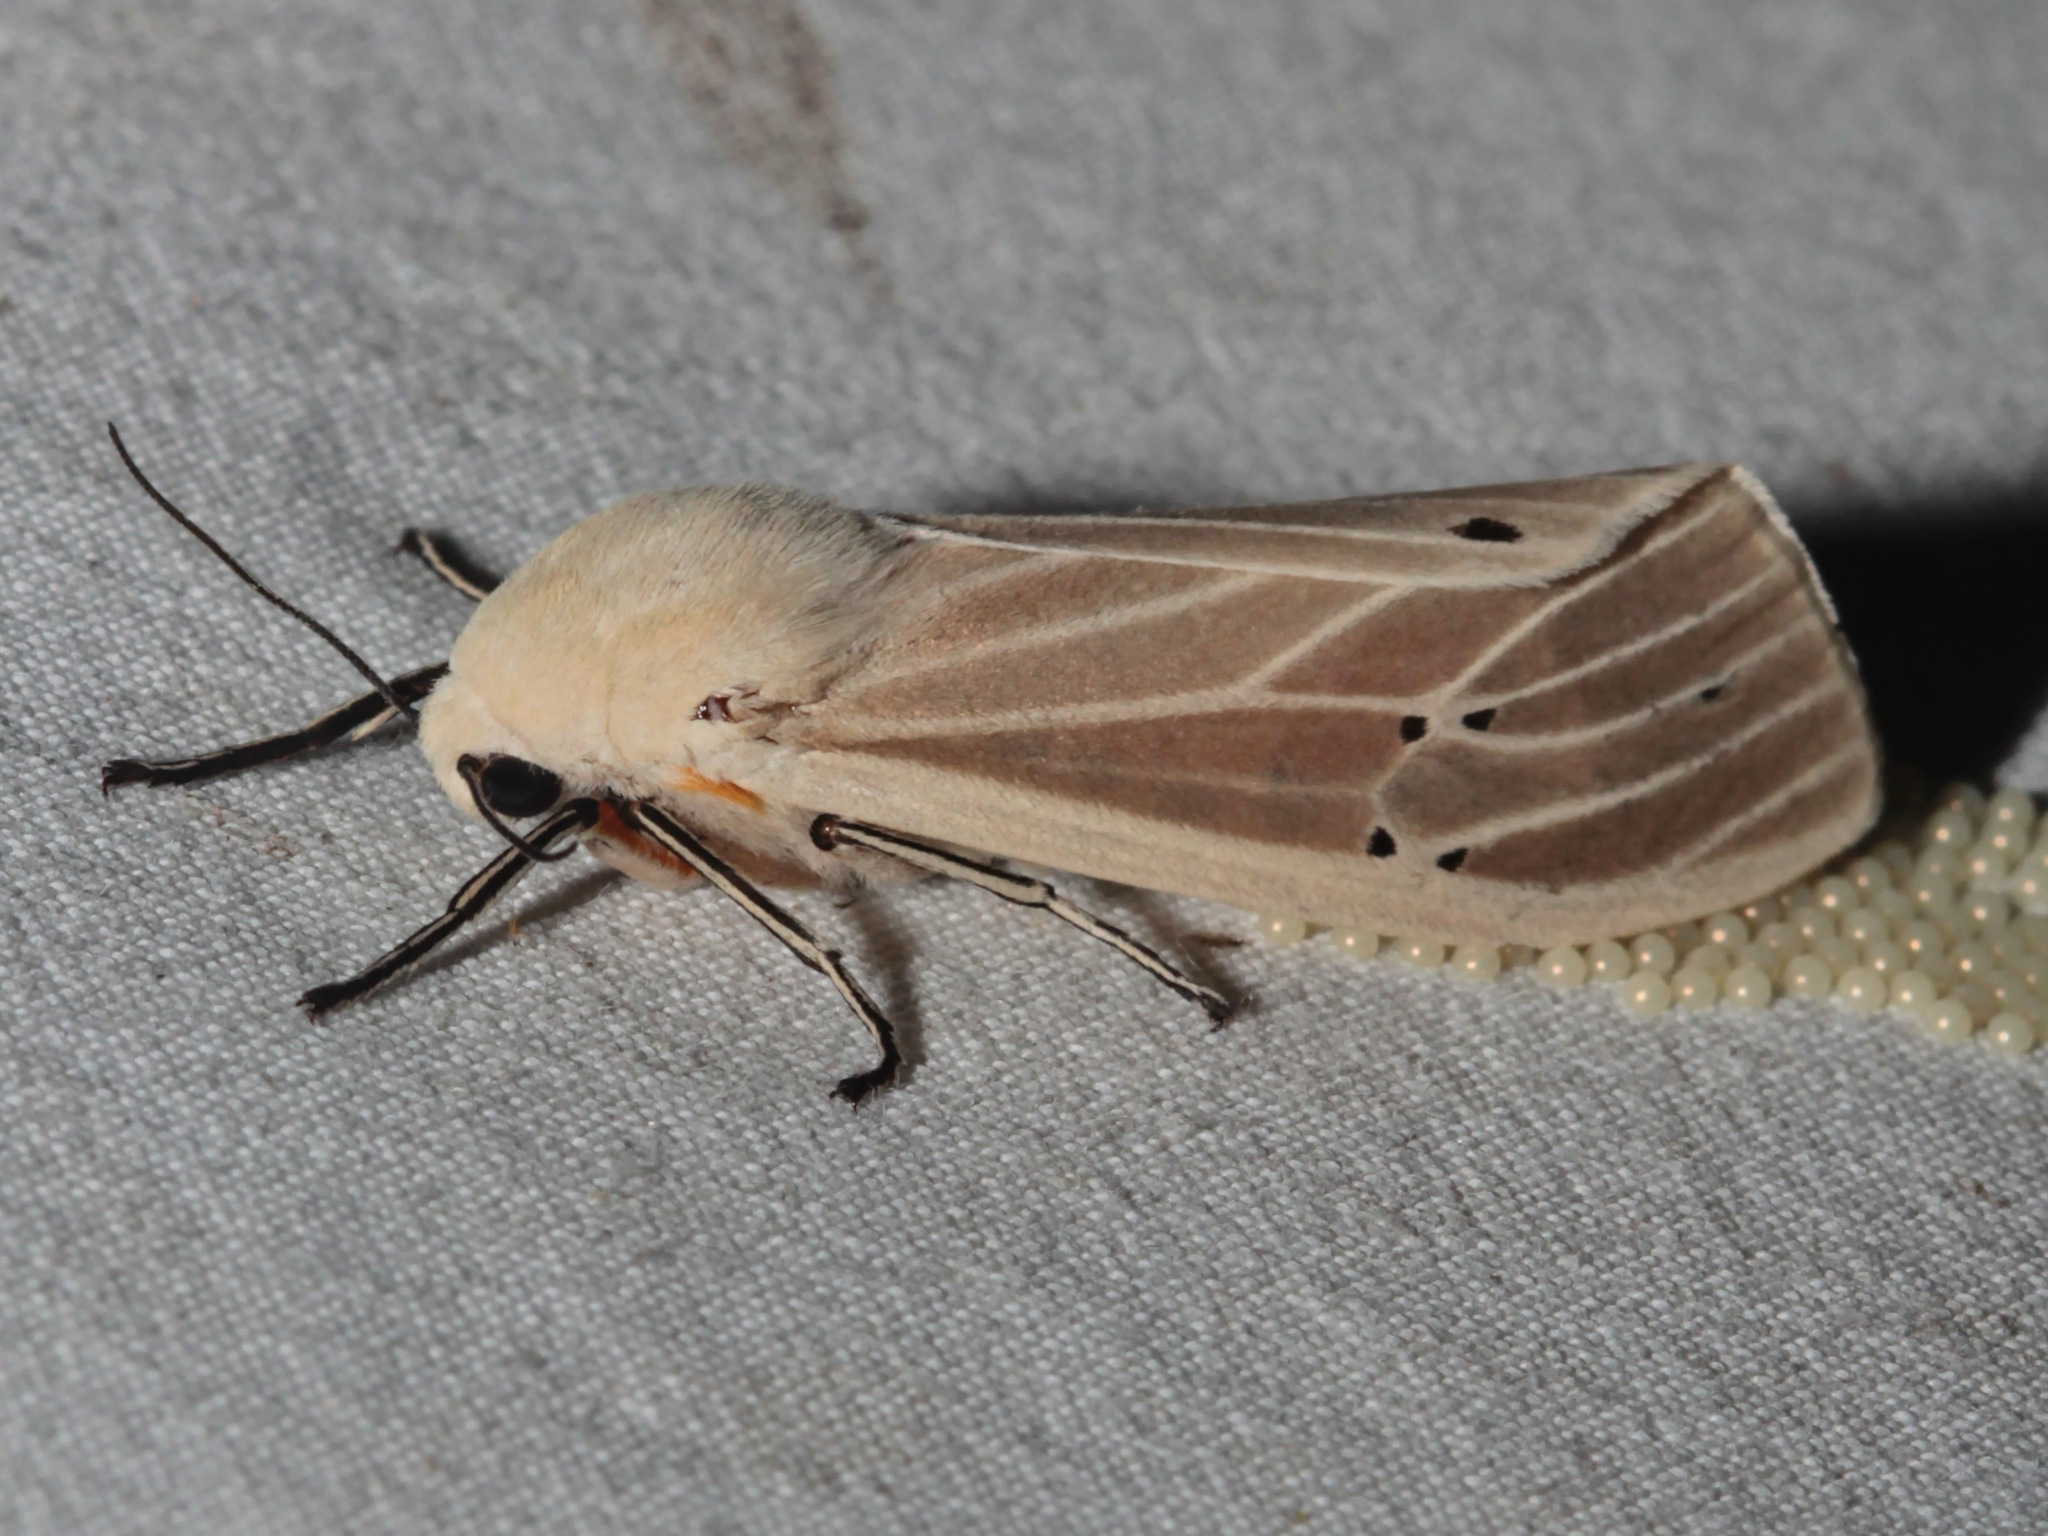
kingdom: Animalia
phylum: Arthropoda
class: Insecta
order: Lepidoptera
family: Erebidae
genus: Creatonotos
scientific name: Creatonotos transiens
